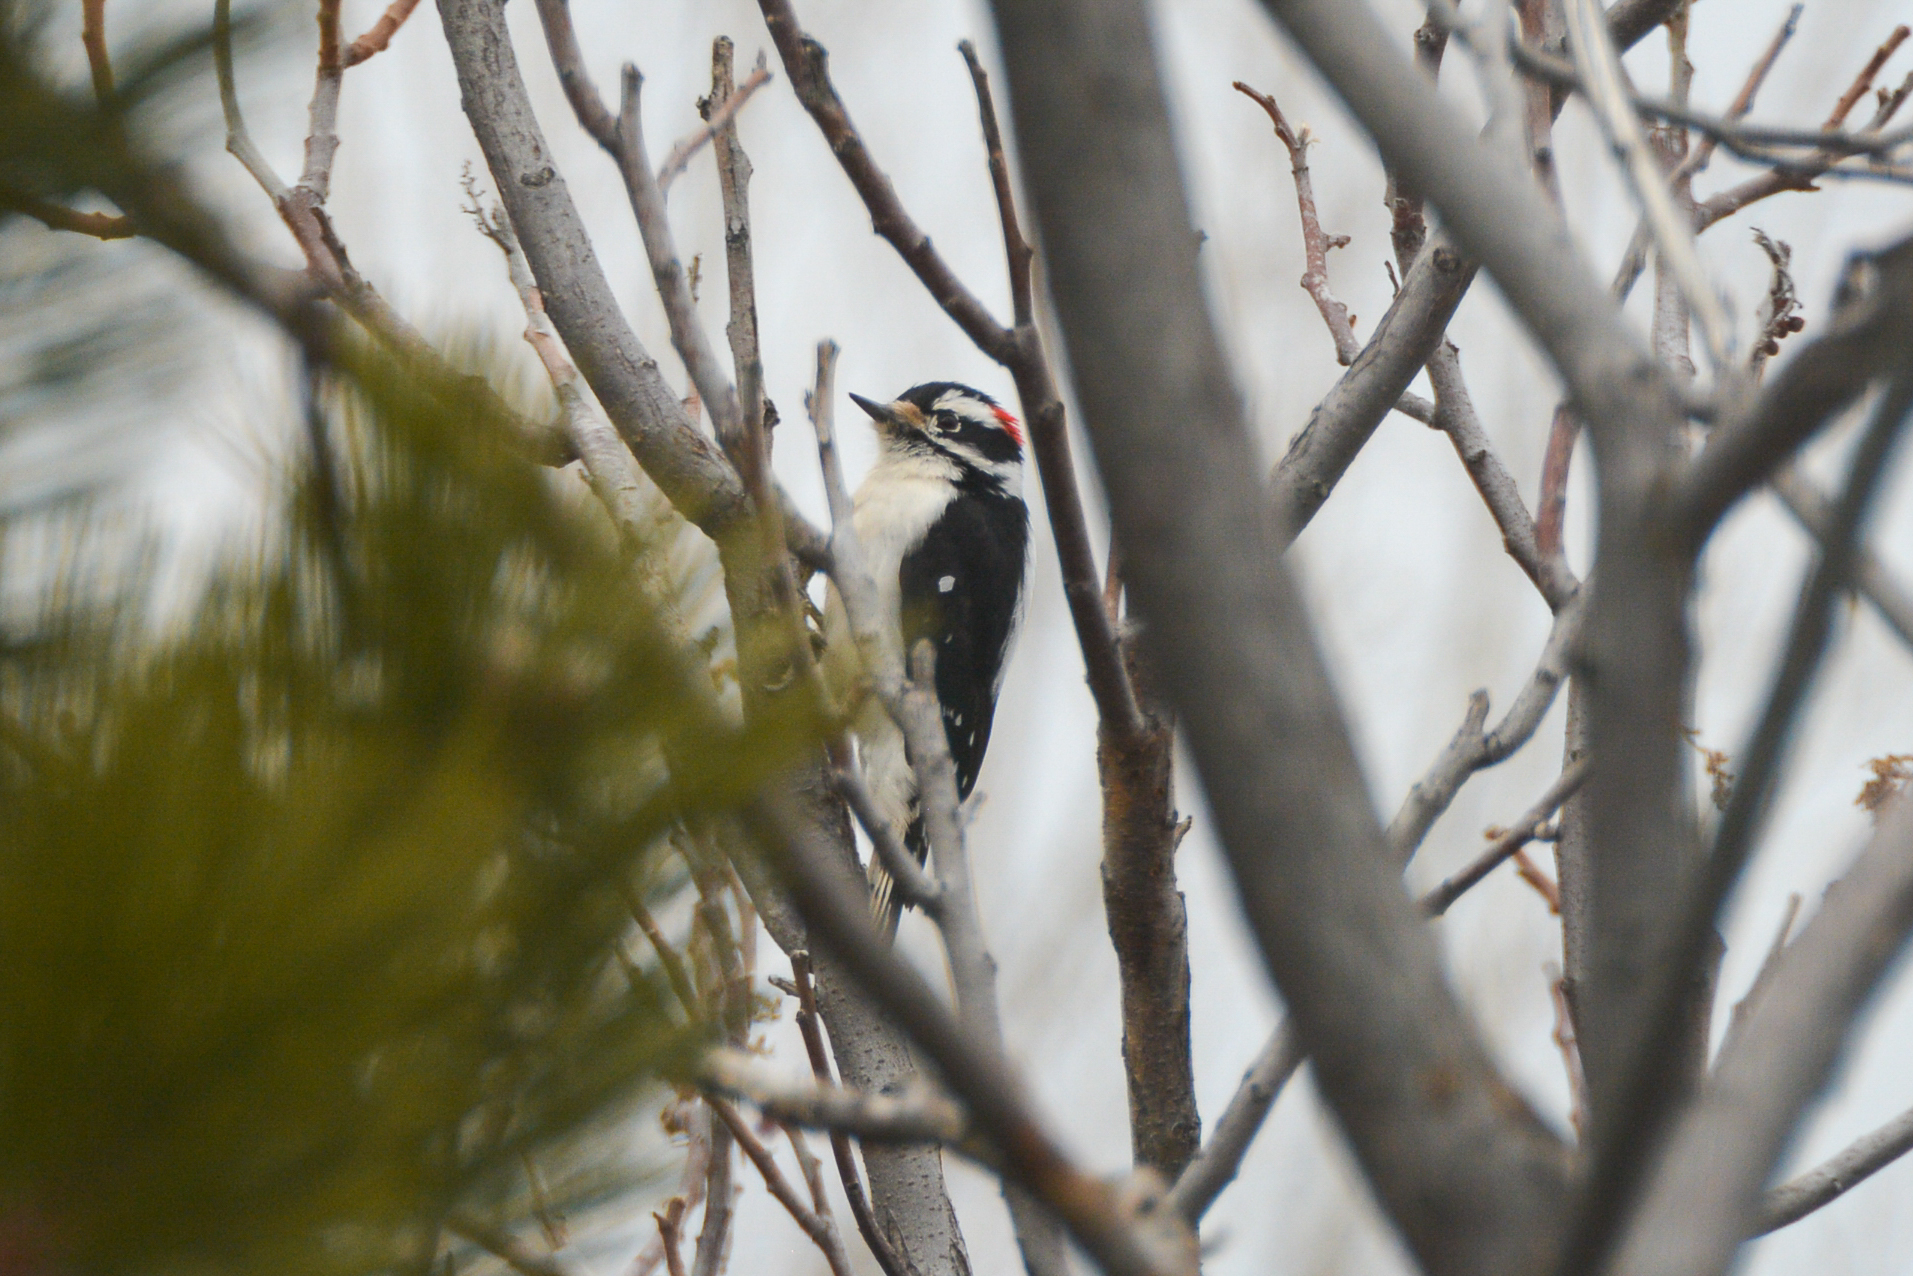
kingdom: Animalia
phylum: Chordata
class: Aves
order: Piciformes
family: Picidae
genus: Dryobates
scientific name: Dryobates pubescens
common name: Downy woodpecker
